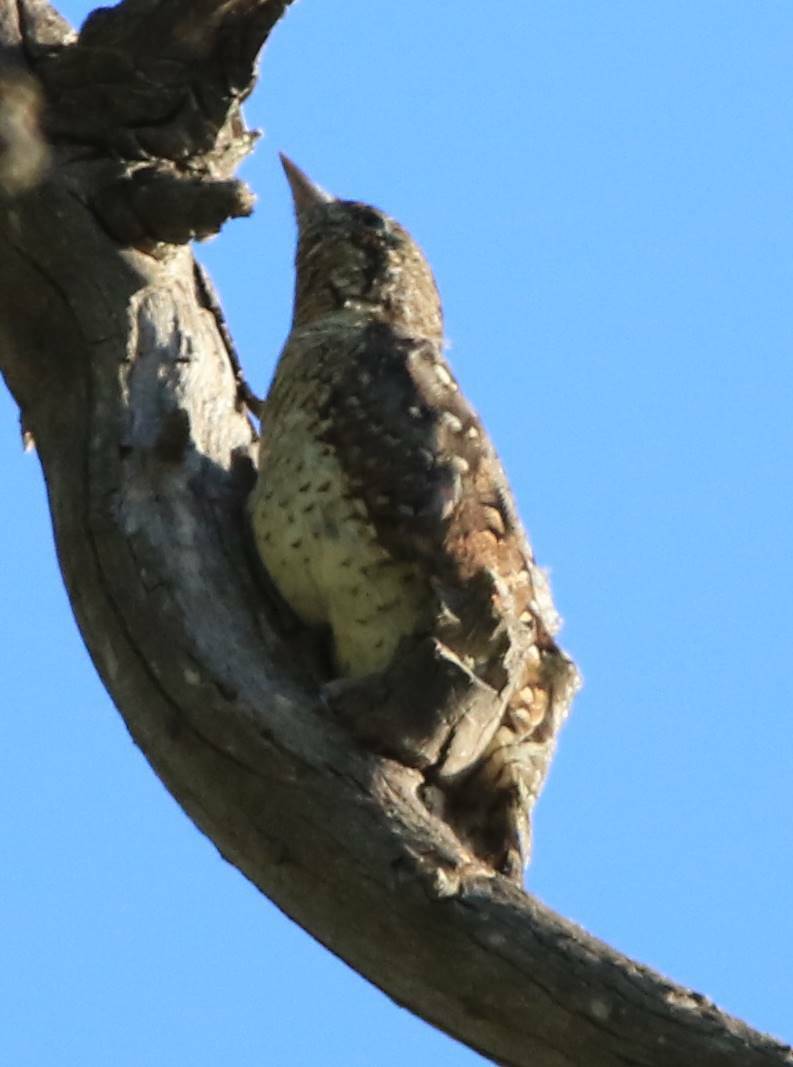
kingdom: Animalia
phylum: Chordata
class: Aves
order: Piciformes
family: Picidae
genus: Jynx
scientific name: Jynx torquilla
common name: Eurasian wryneck
